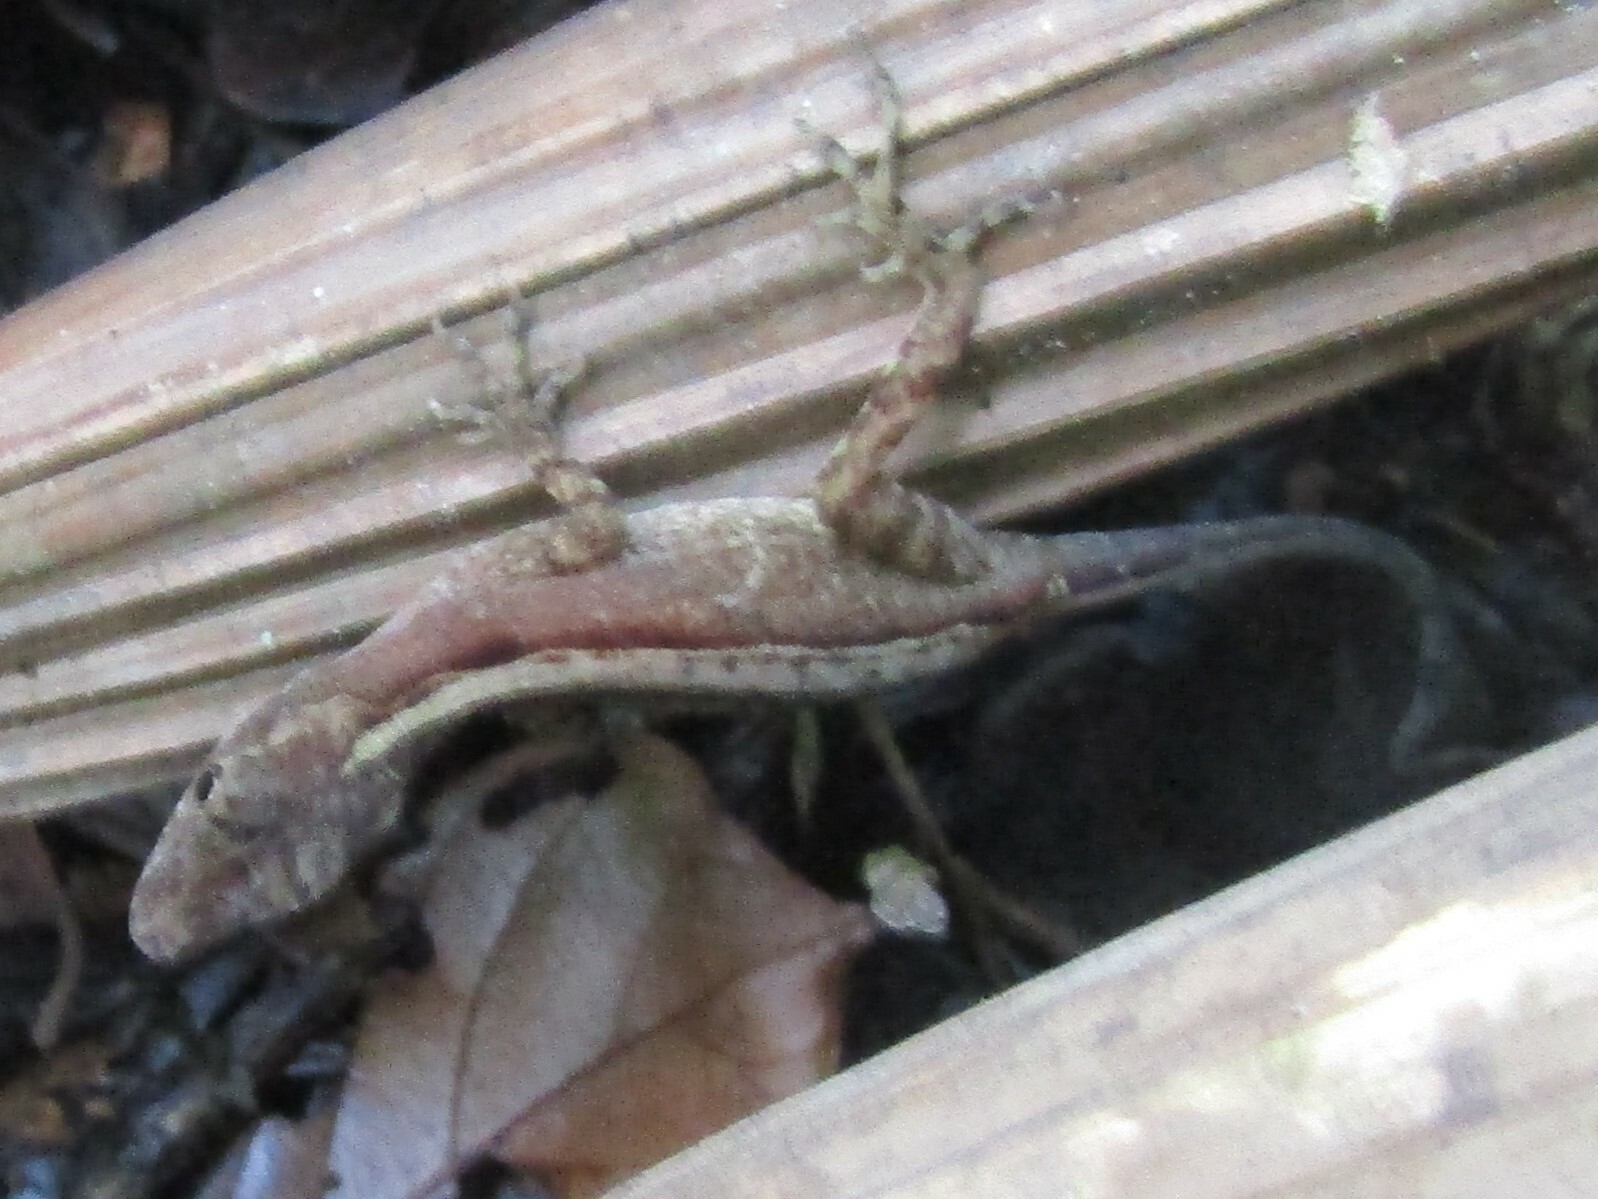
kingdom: Animalia
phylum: Chordata
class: Squamata
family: Dactyloidae
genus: Anolis
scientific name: Anolis gaigei
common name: Gaige’s anole
